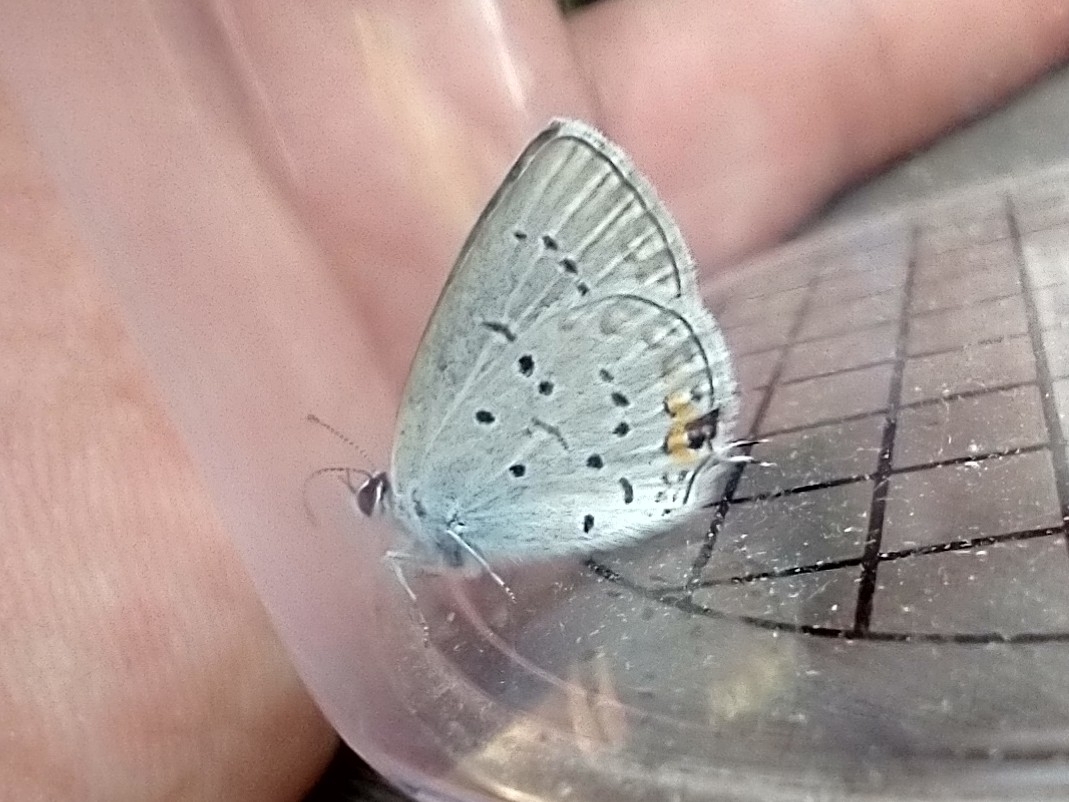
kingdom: Animalia
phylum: Arthropoda
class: Insecta
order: Lepidoptera
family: Lycaenidae
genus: Elkalyce
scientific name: Elkalyce amyntula
